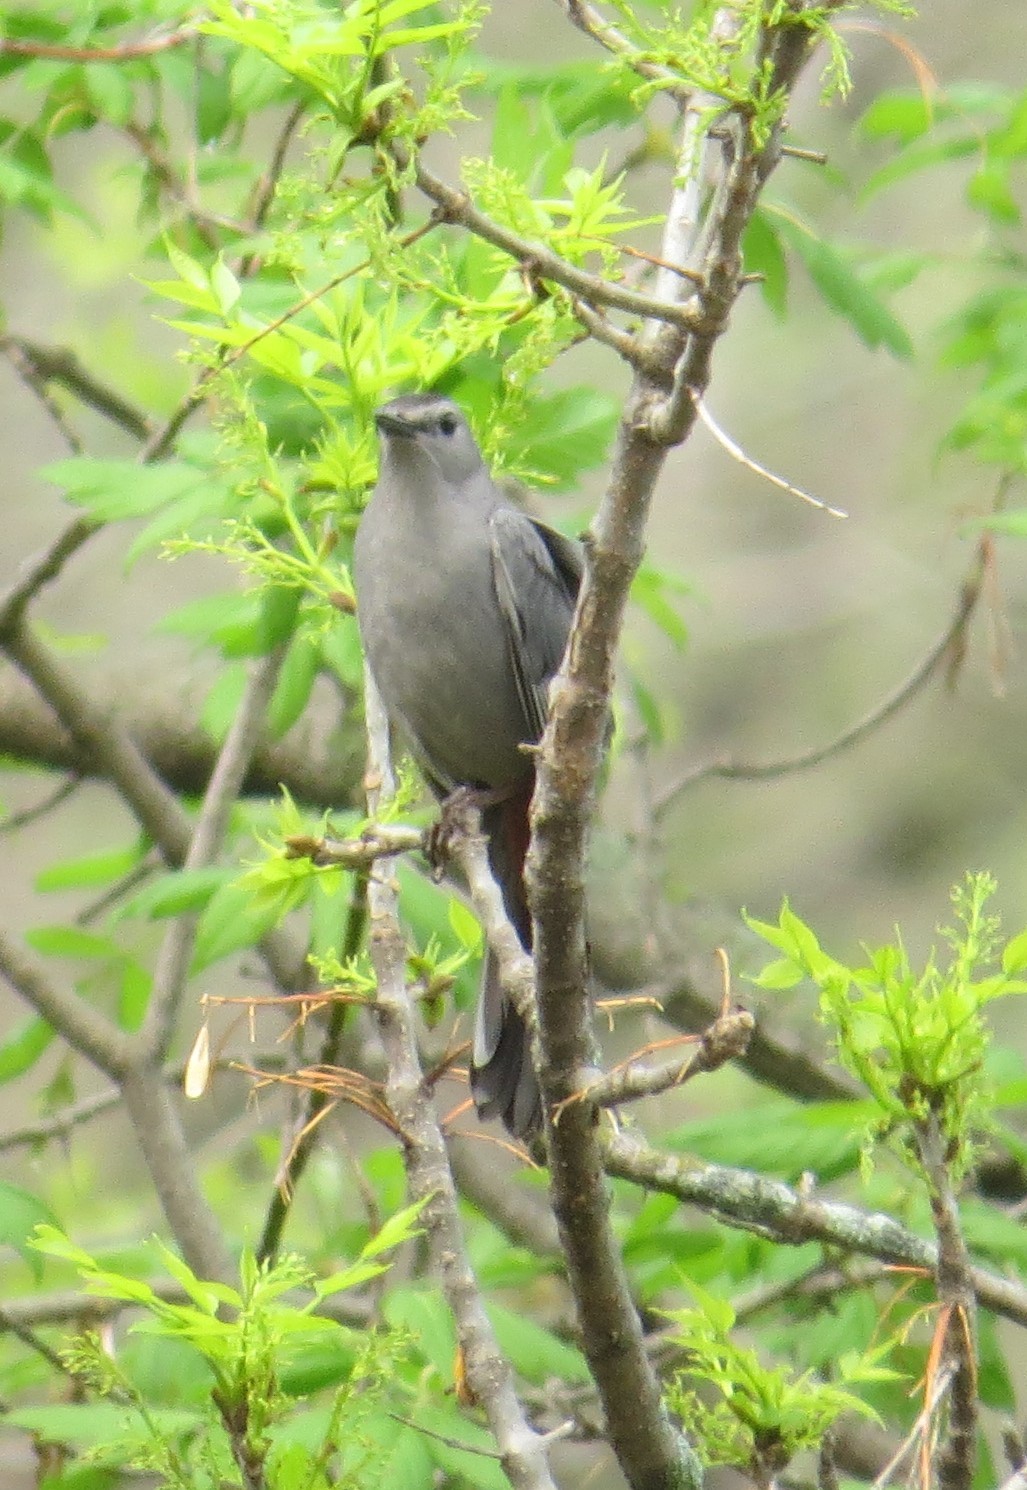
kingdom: Animalia
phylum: Chordata
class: Aves
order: Passeriformes
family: Mimidae
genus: Dumetella
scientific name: Dumetella carolinensis
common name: Gray catbird
